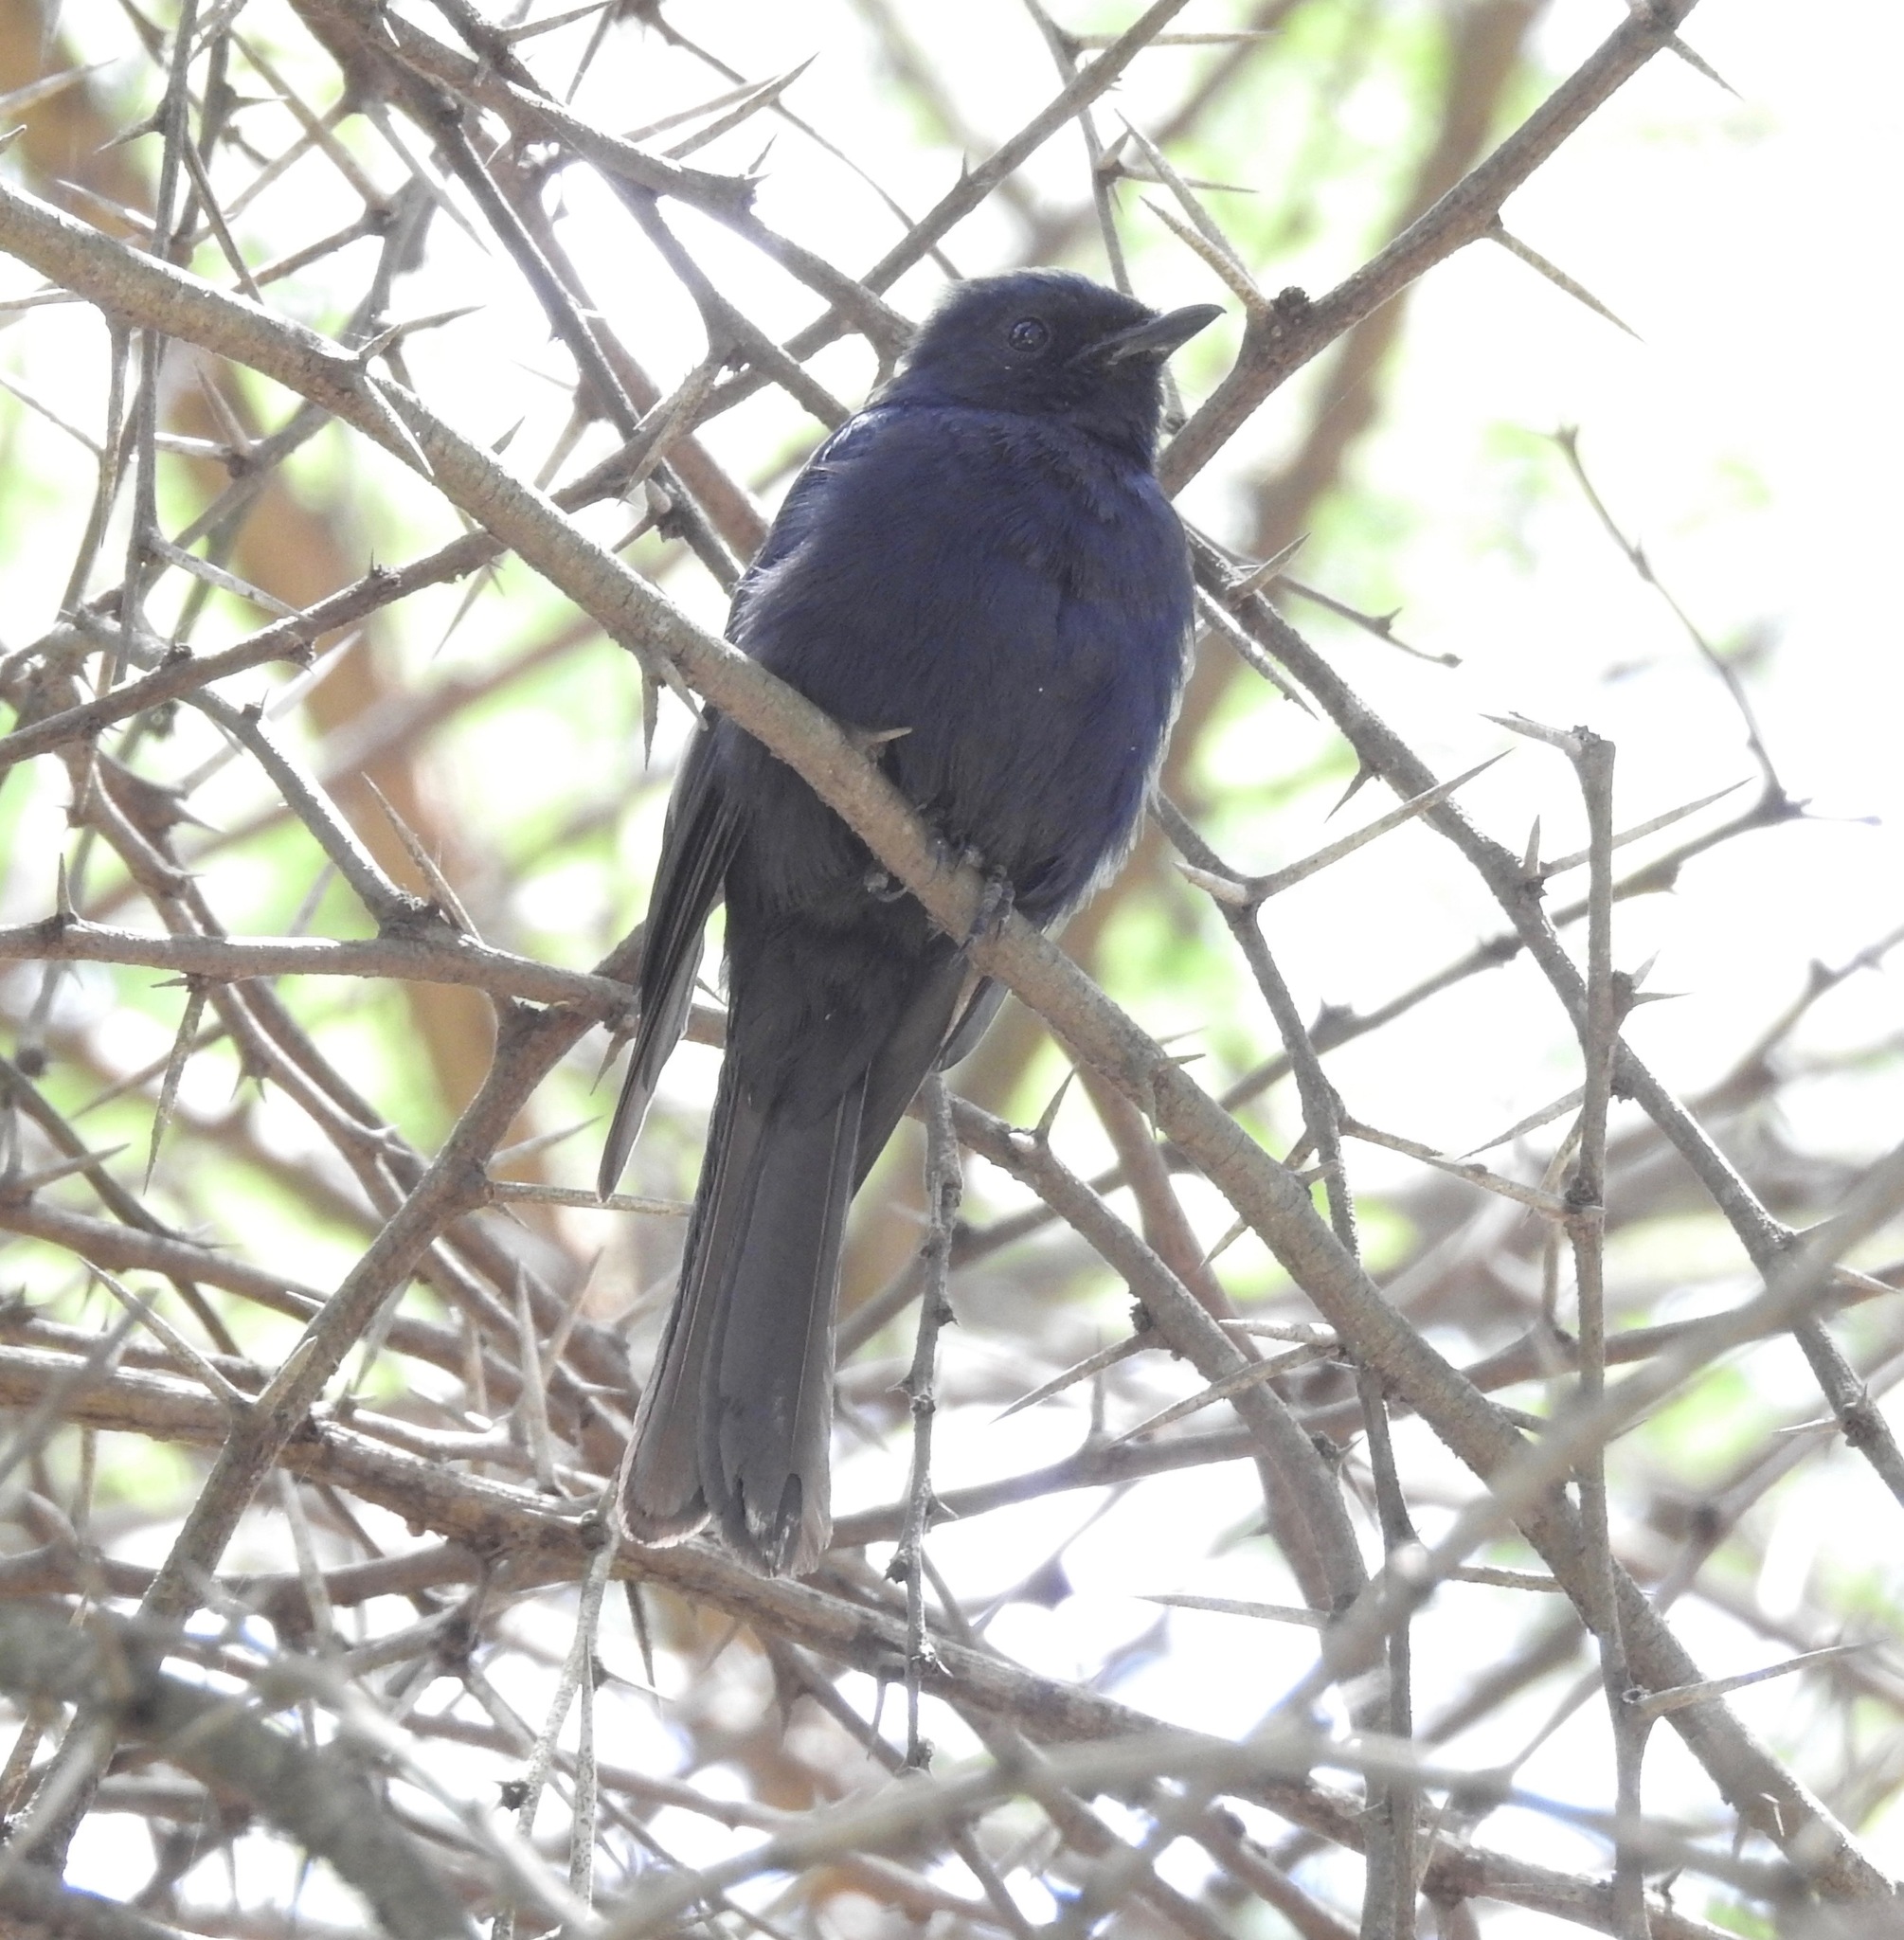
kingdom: Animalia
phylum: Chordata
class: Aves
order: Passeriformes
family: Muscicapidae
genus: Melaenornis
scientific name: Melaenornis pammelaina
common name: Southern black flycatcher
